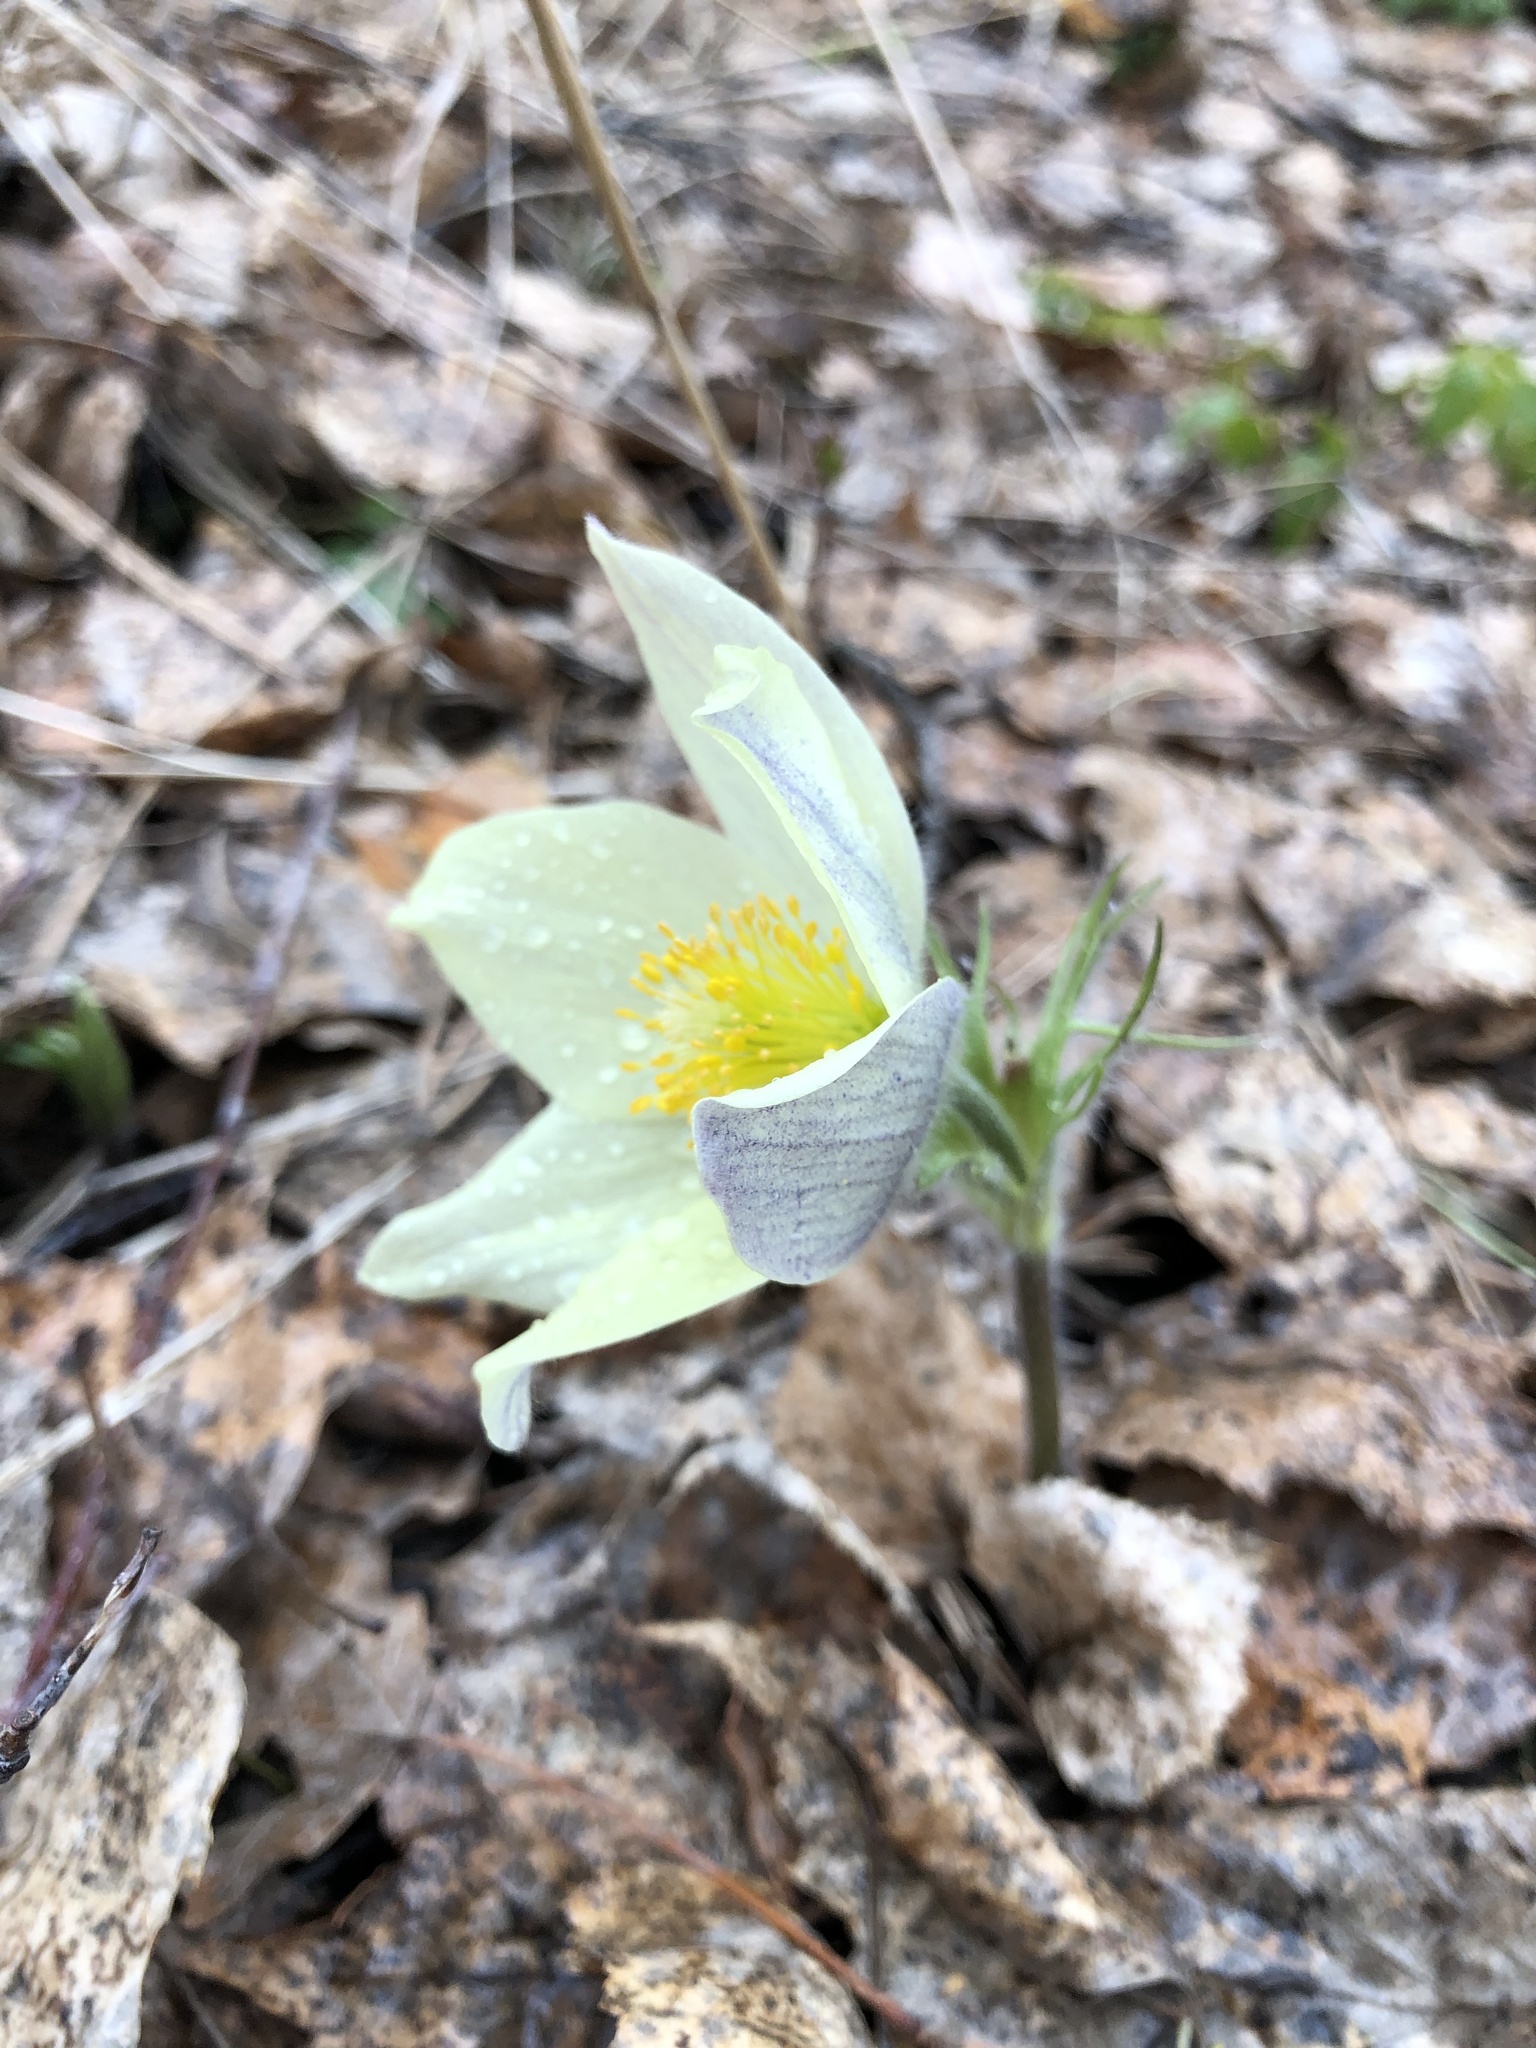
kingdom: Plantae
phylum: Tracheophyta
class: Magnoliopsida
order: Ranunculales
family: Ranunculaceae
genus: Pulsatilla
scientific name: Pulsatilla patens
